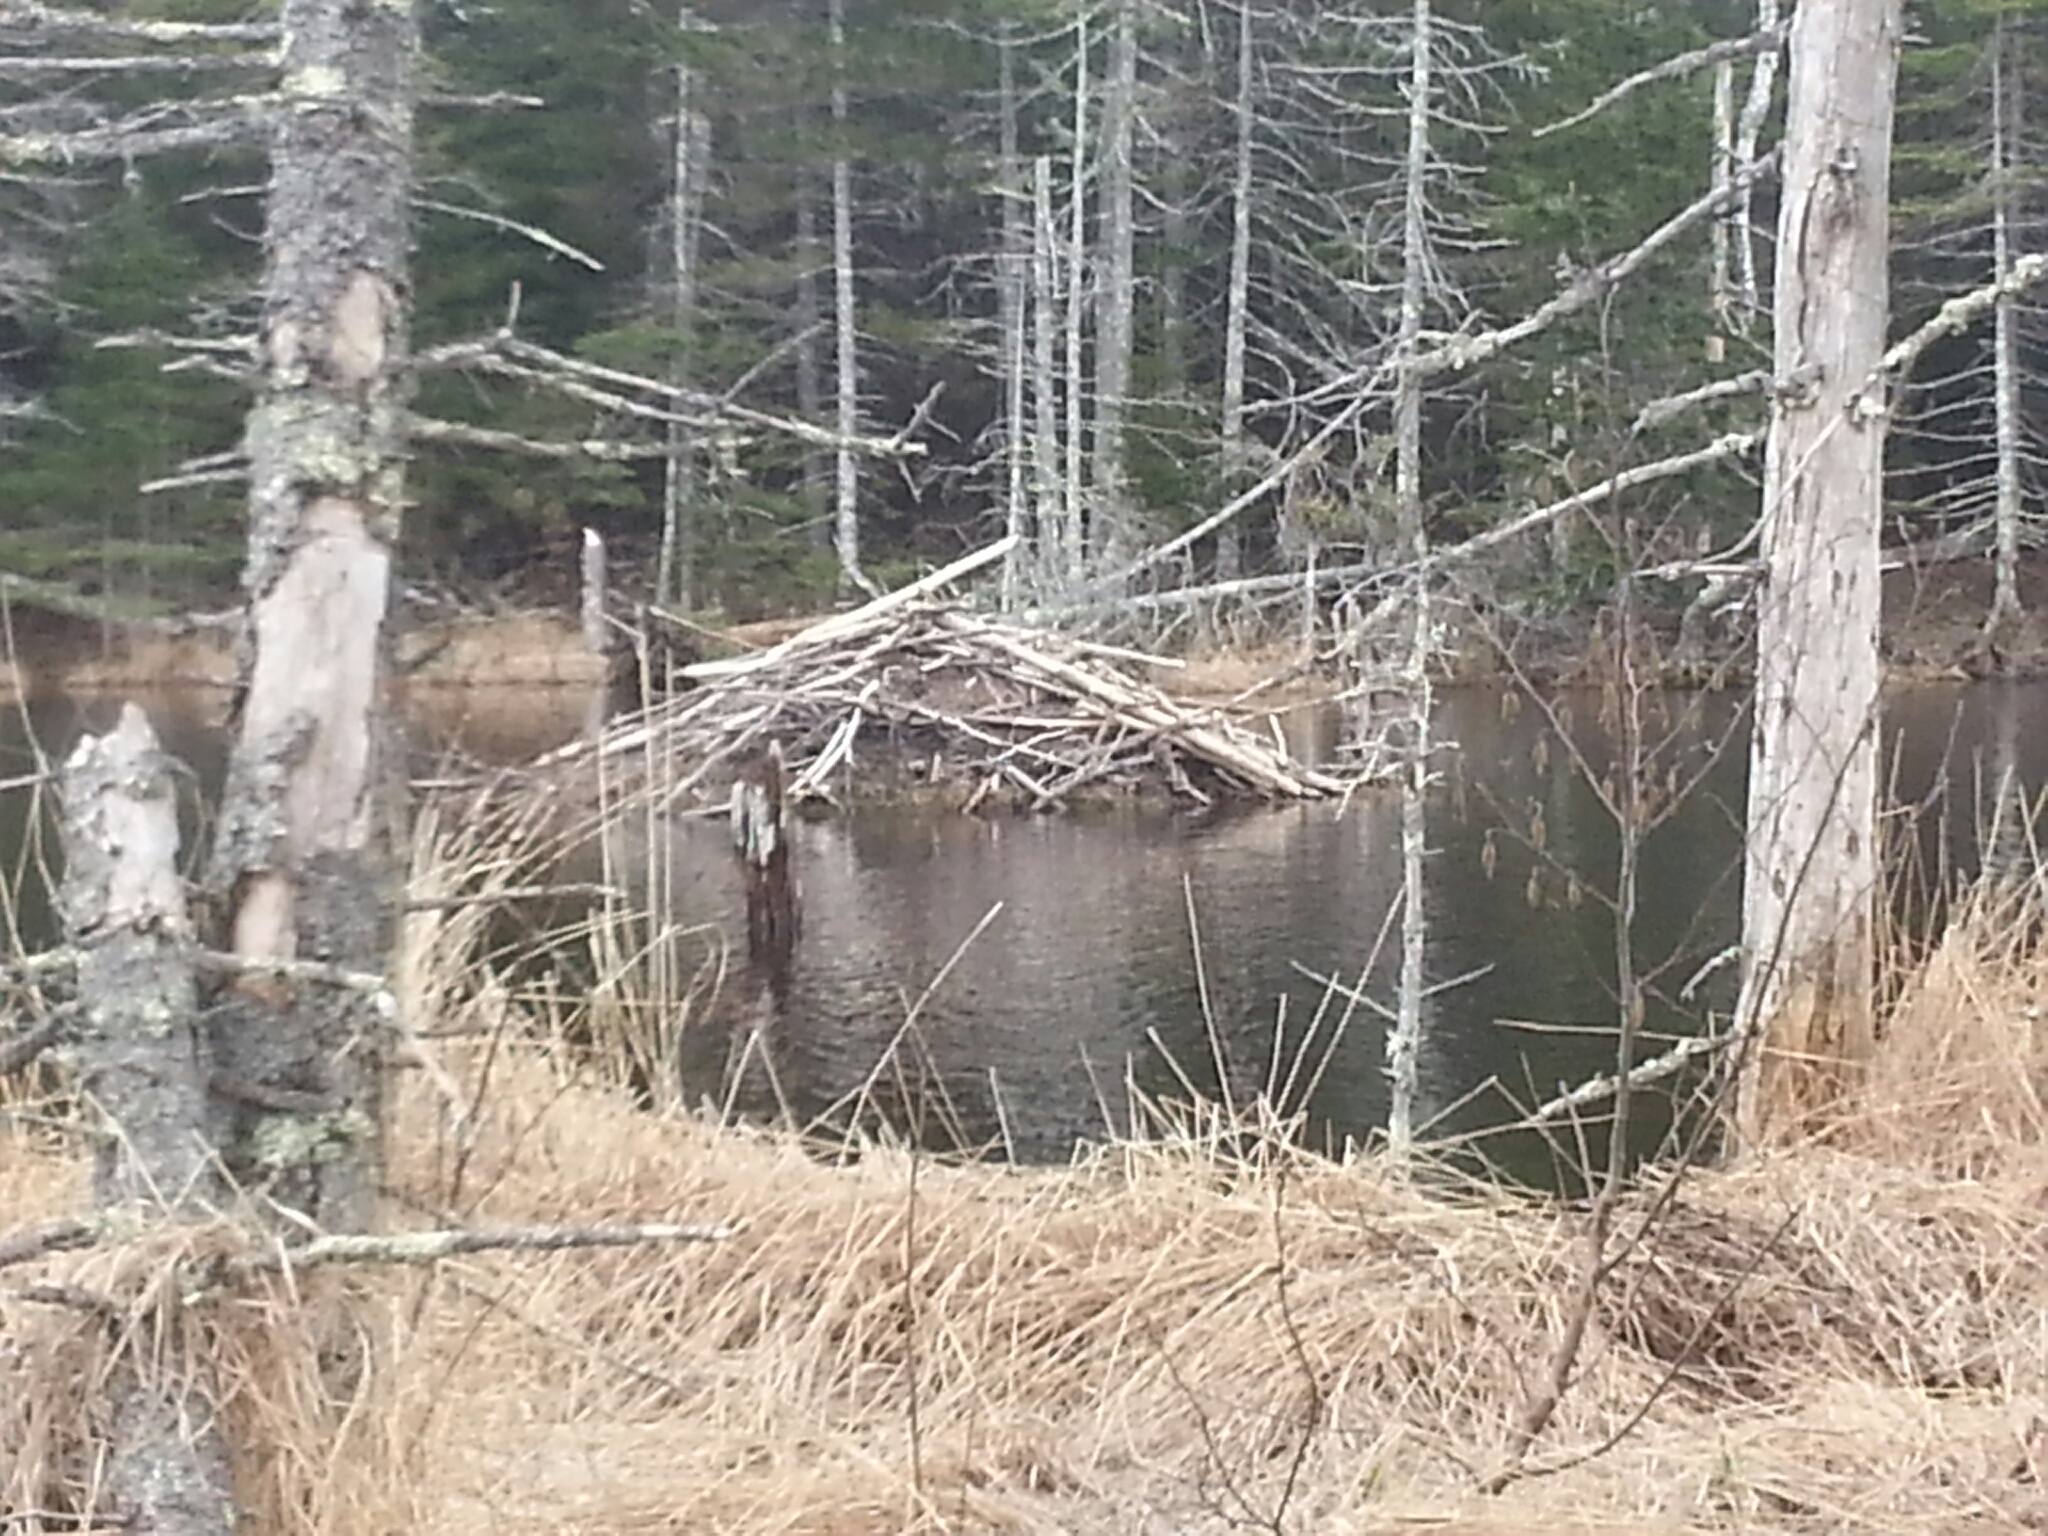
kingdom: Animalia
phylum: Chordata
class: Mammalia
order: Rodentia
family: Castoridae
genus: Castor
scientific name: Castor canadensis
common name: American beaver
